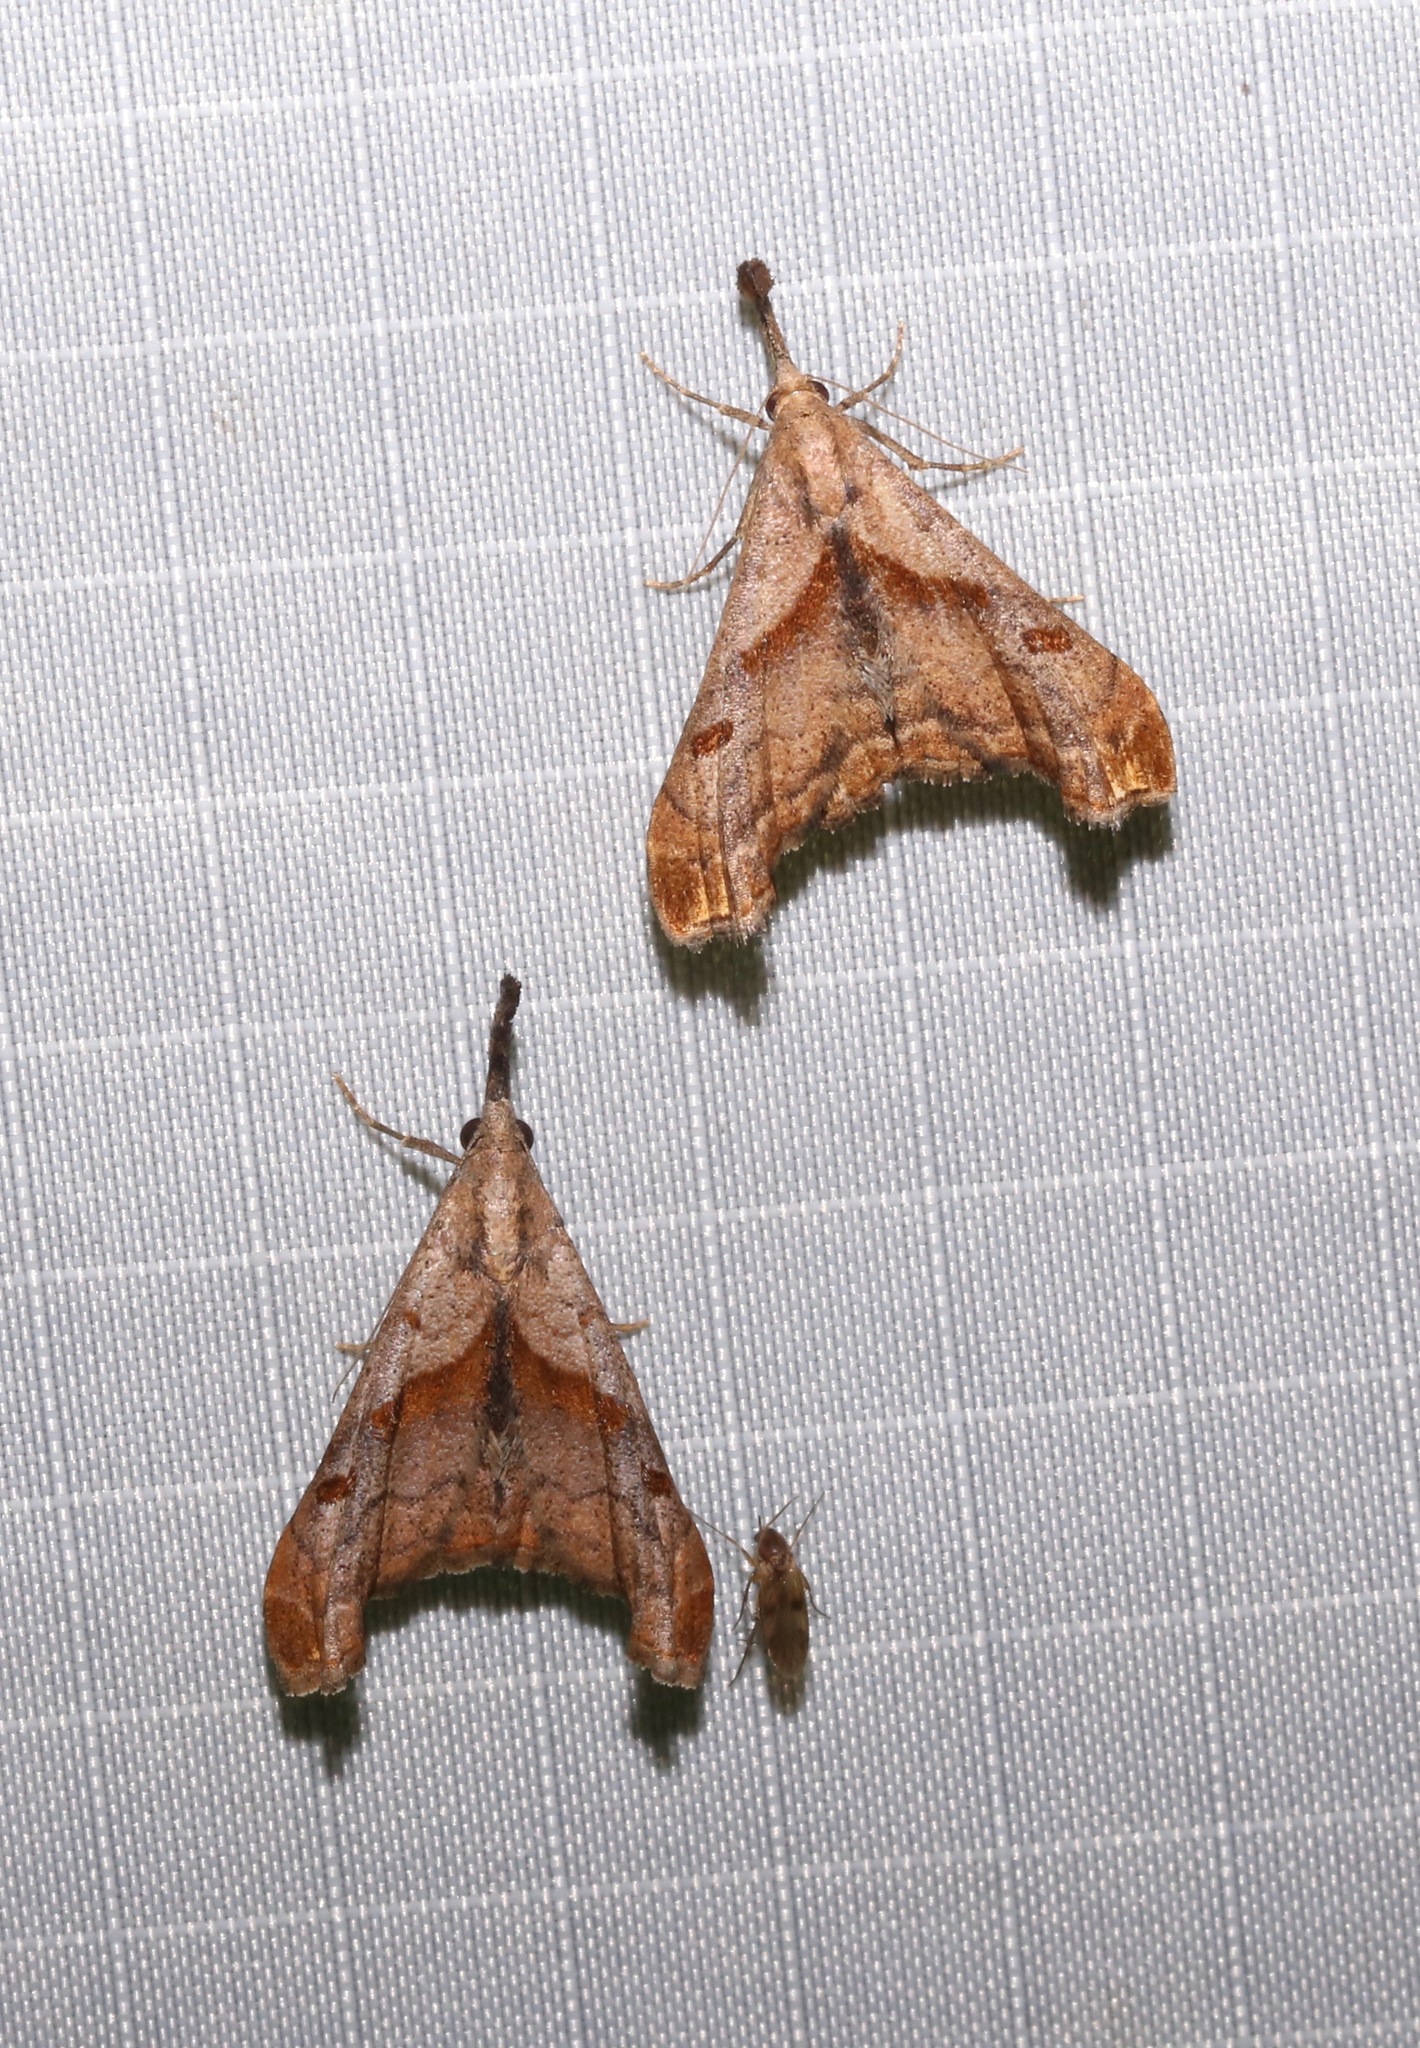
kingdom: Animalia
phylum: Arthropoda
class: Insecta
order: Lepidoptera
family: Erebidae
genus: Palthis
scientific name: Palthis angulalis
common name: Dark-spotted palthis moth
